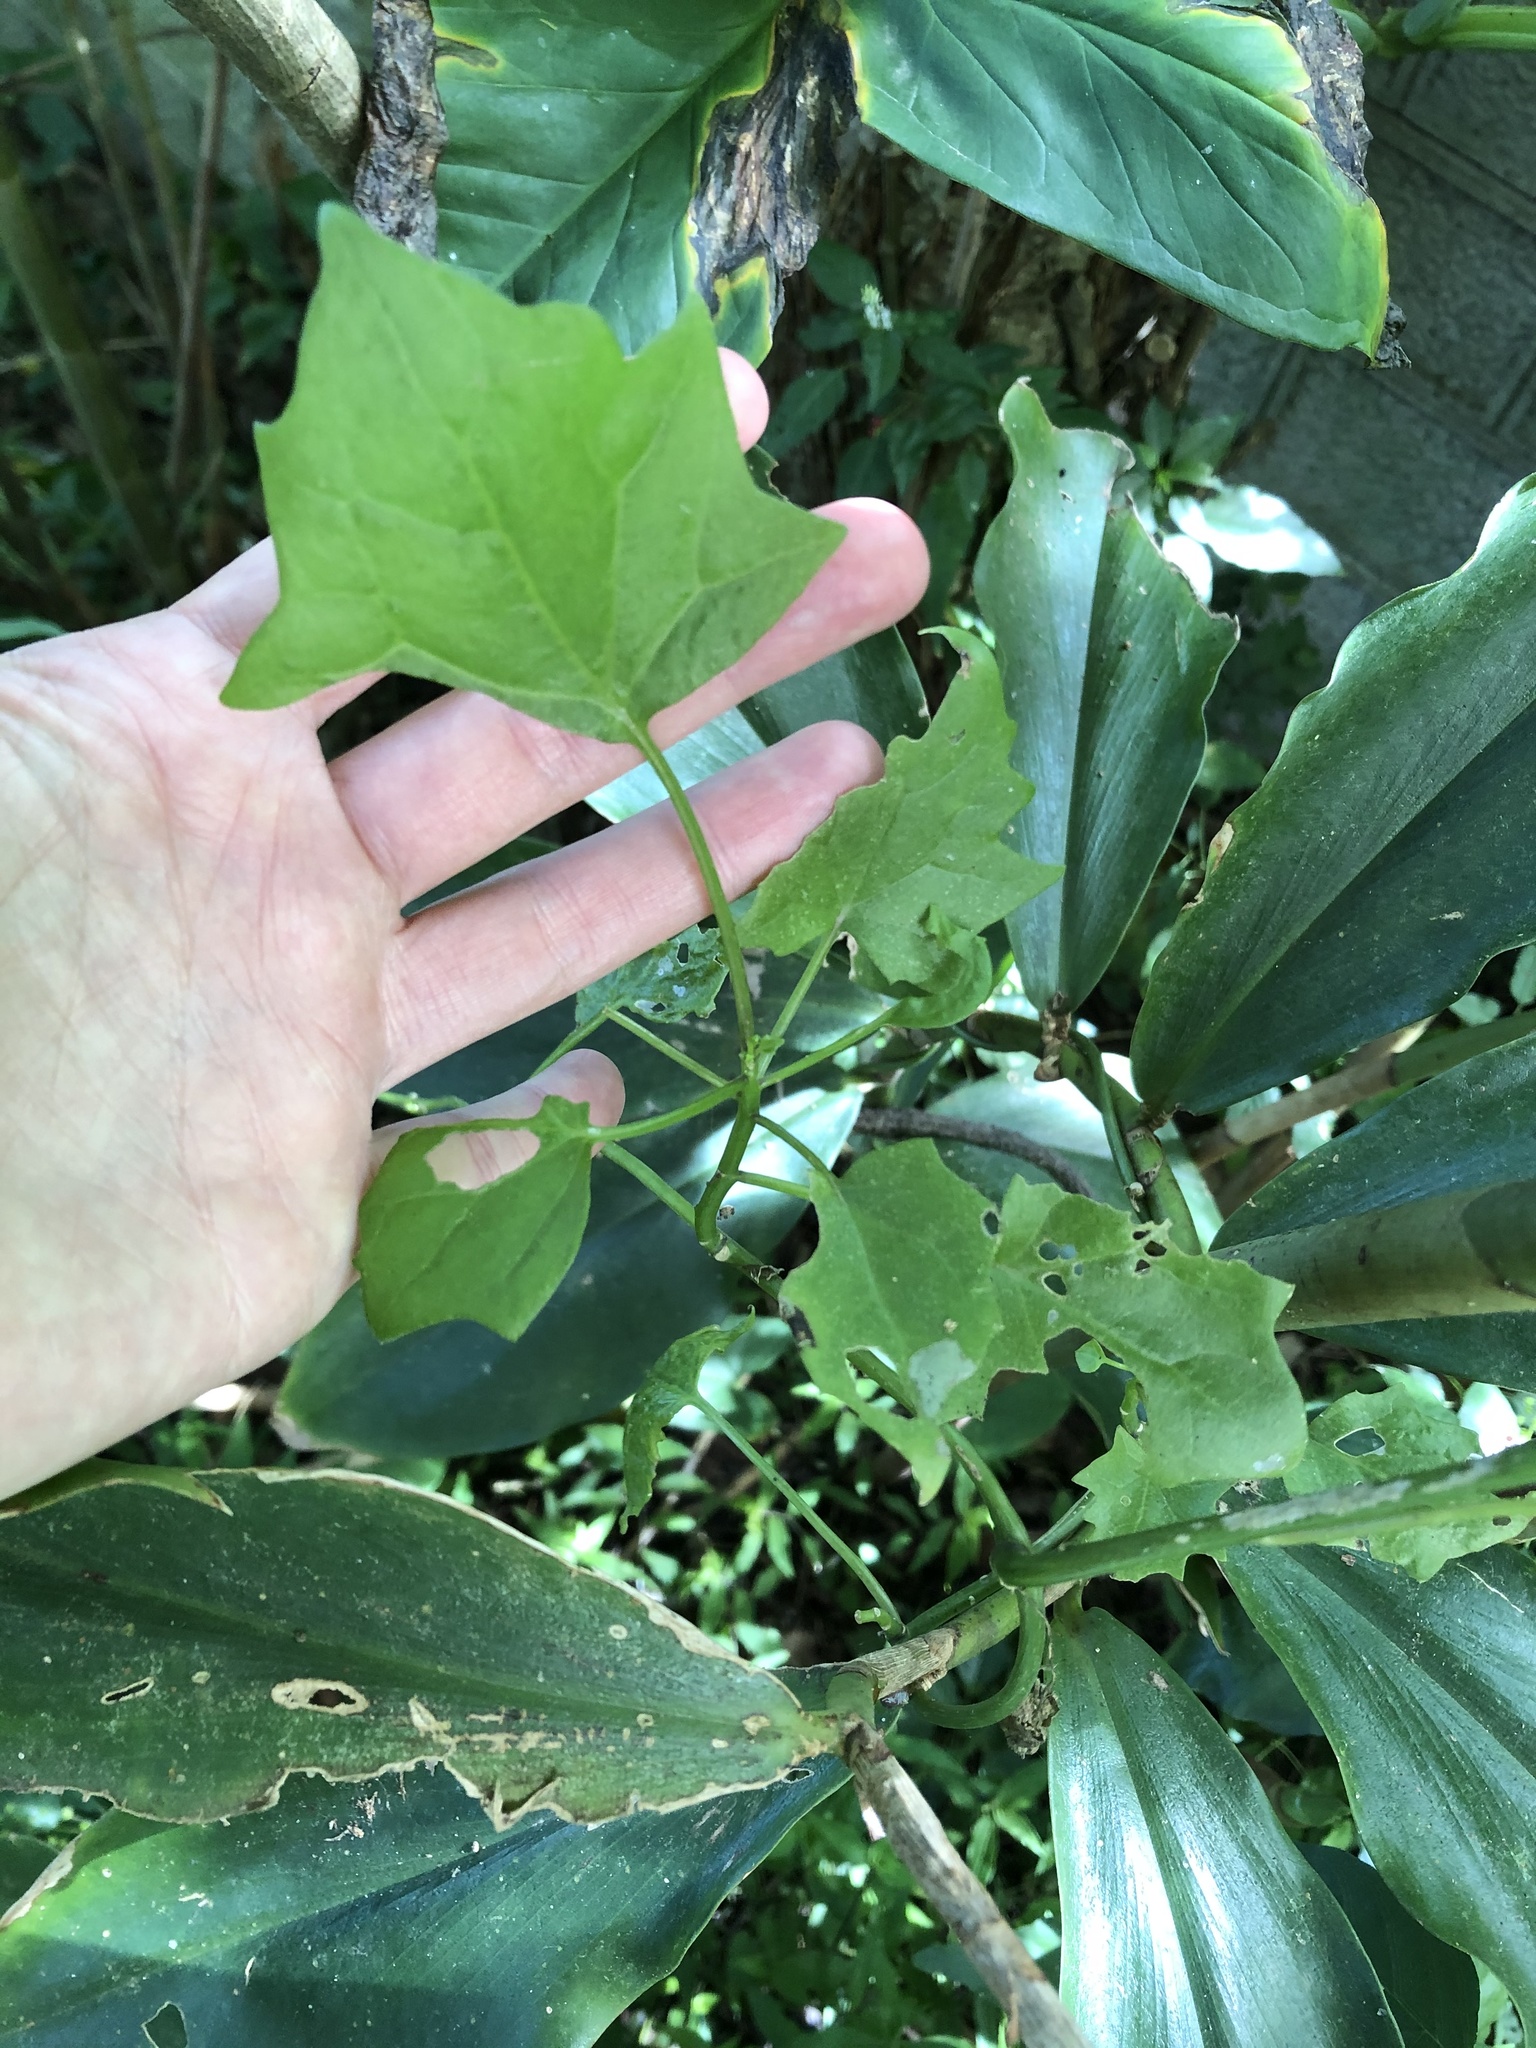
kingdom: Plantae
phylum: Tracheophyta
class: Magnoliopsida
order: Asterales
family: Asteraceae
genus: Senecio
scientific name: Senecio tamoides
